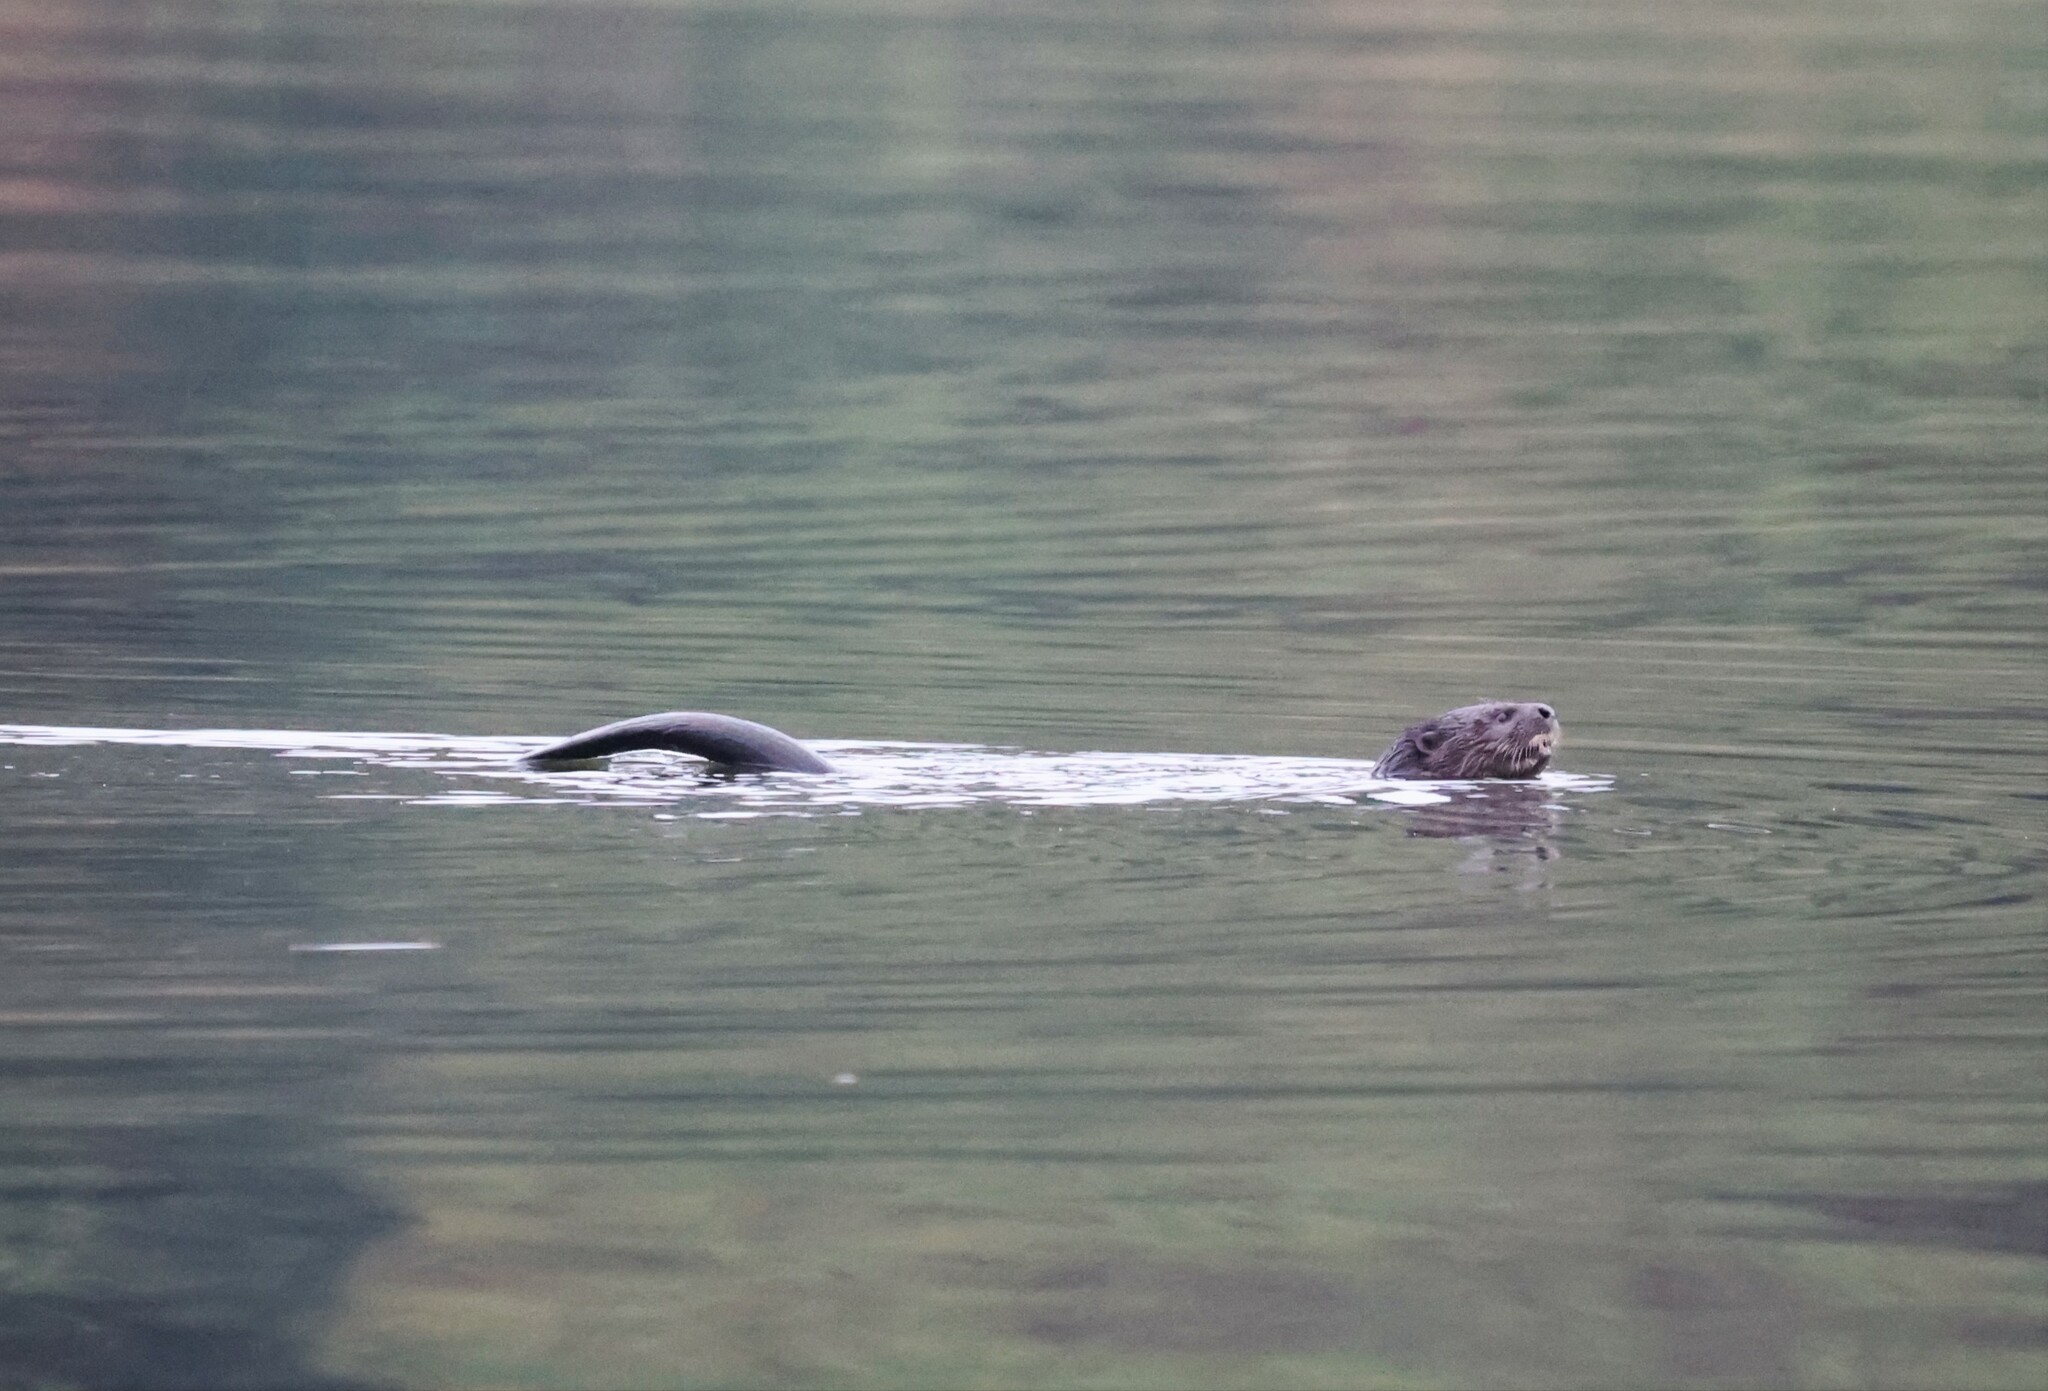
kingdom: Animalia
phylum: Chordata
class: Mammalia
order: Carnivora
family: Mustelidae
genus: Hydrictis
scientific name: Hydrictis maculicollis
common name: Spotted-necked otter
